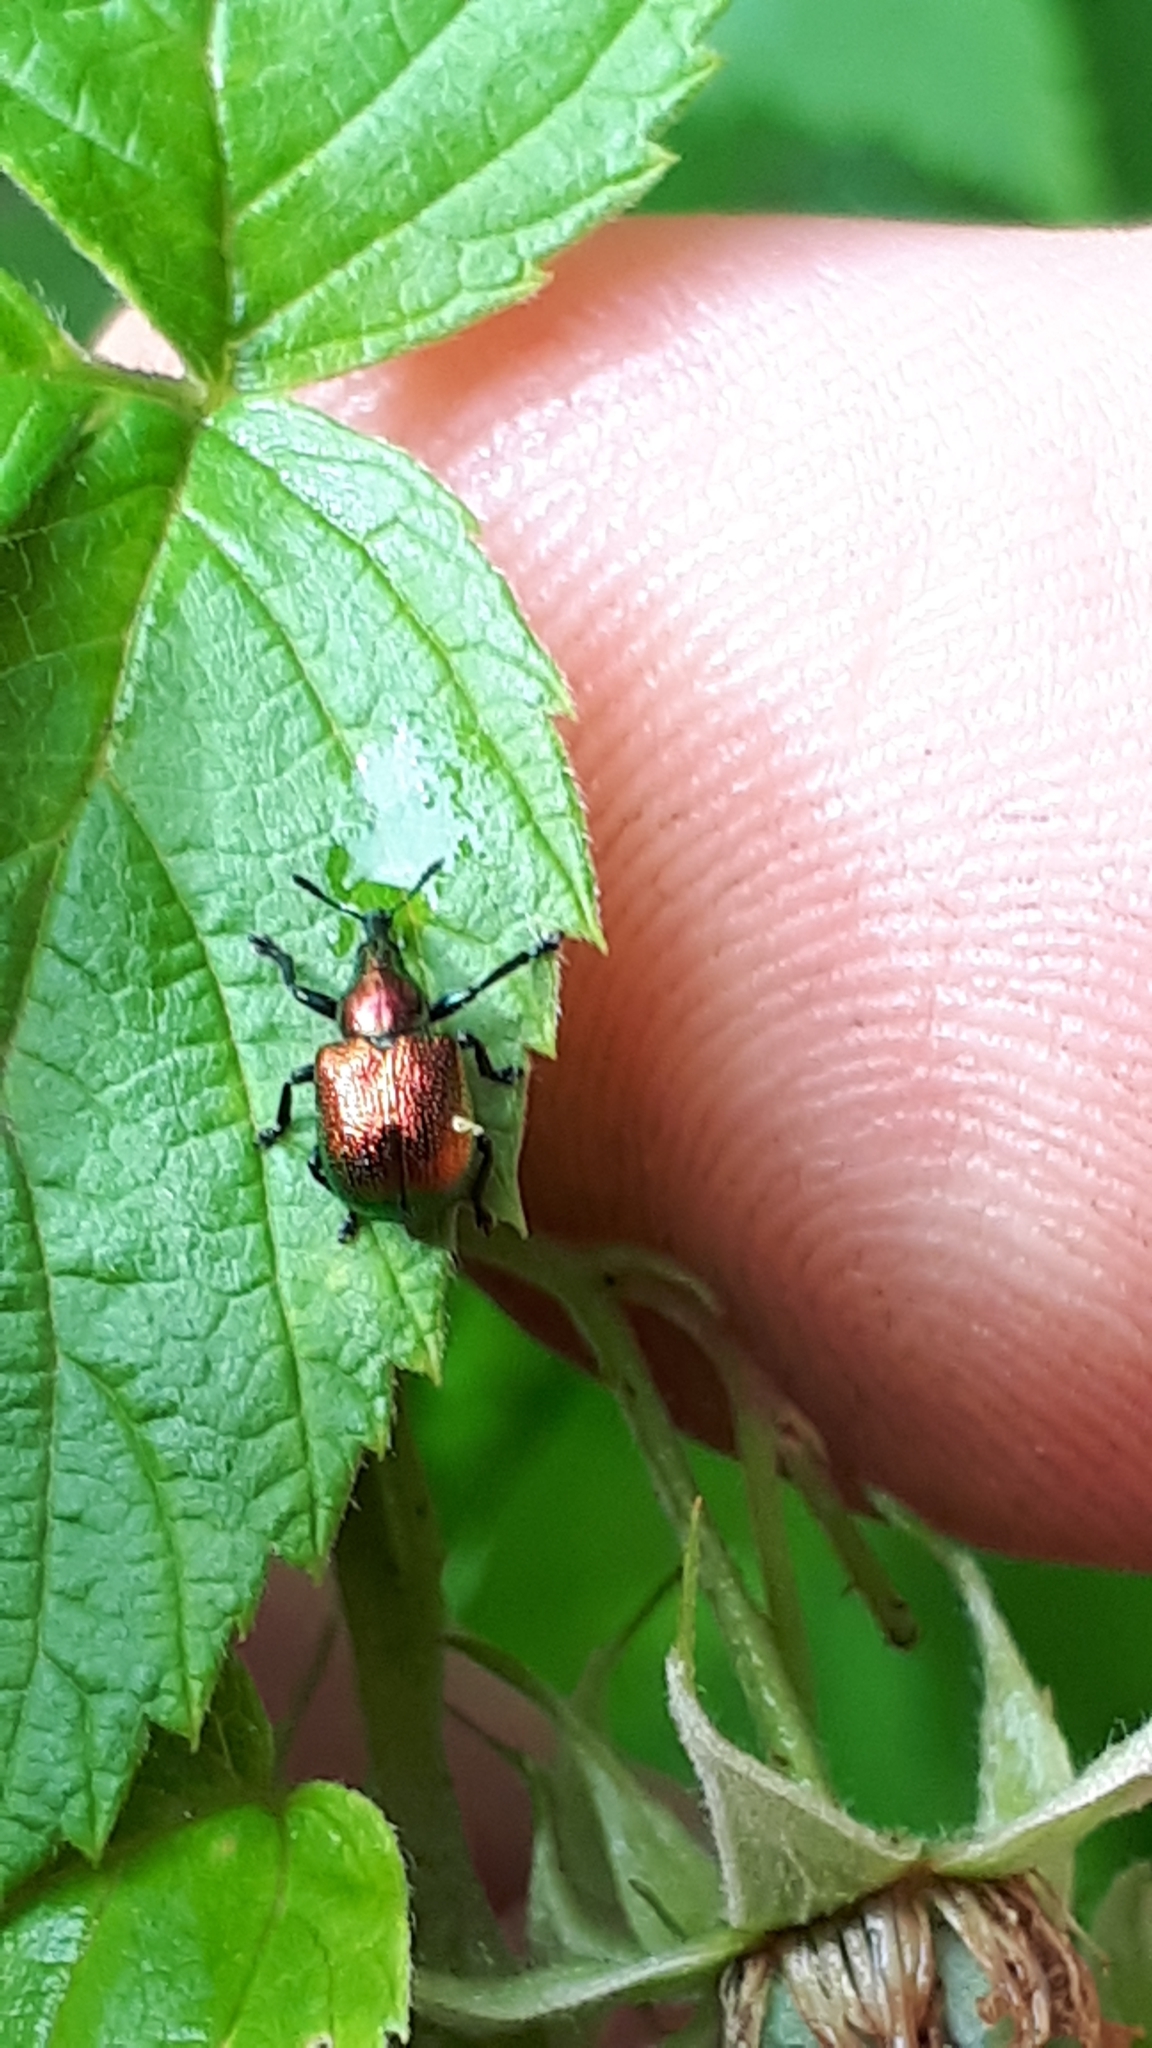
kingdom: Animalia
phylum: Arthropoda
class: Insecta
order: Coleoptera
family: Attelabidae
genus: Byctiscus
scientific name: Byctiscus populi
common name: Leaf-rolling weevil
